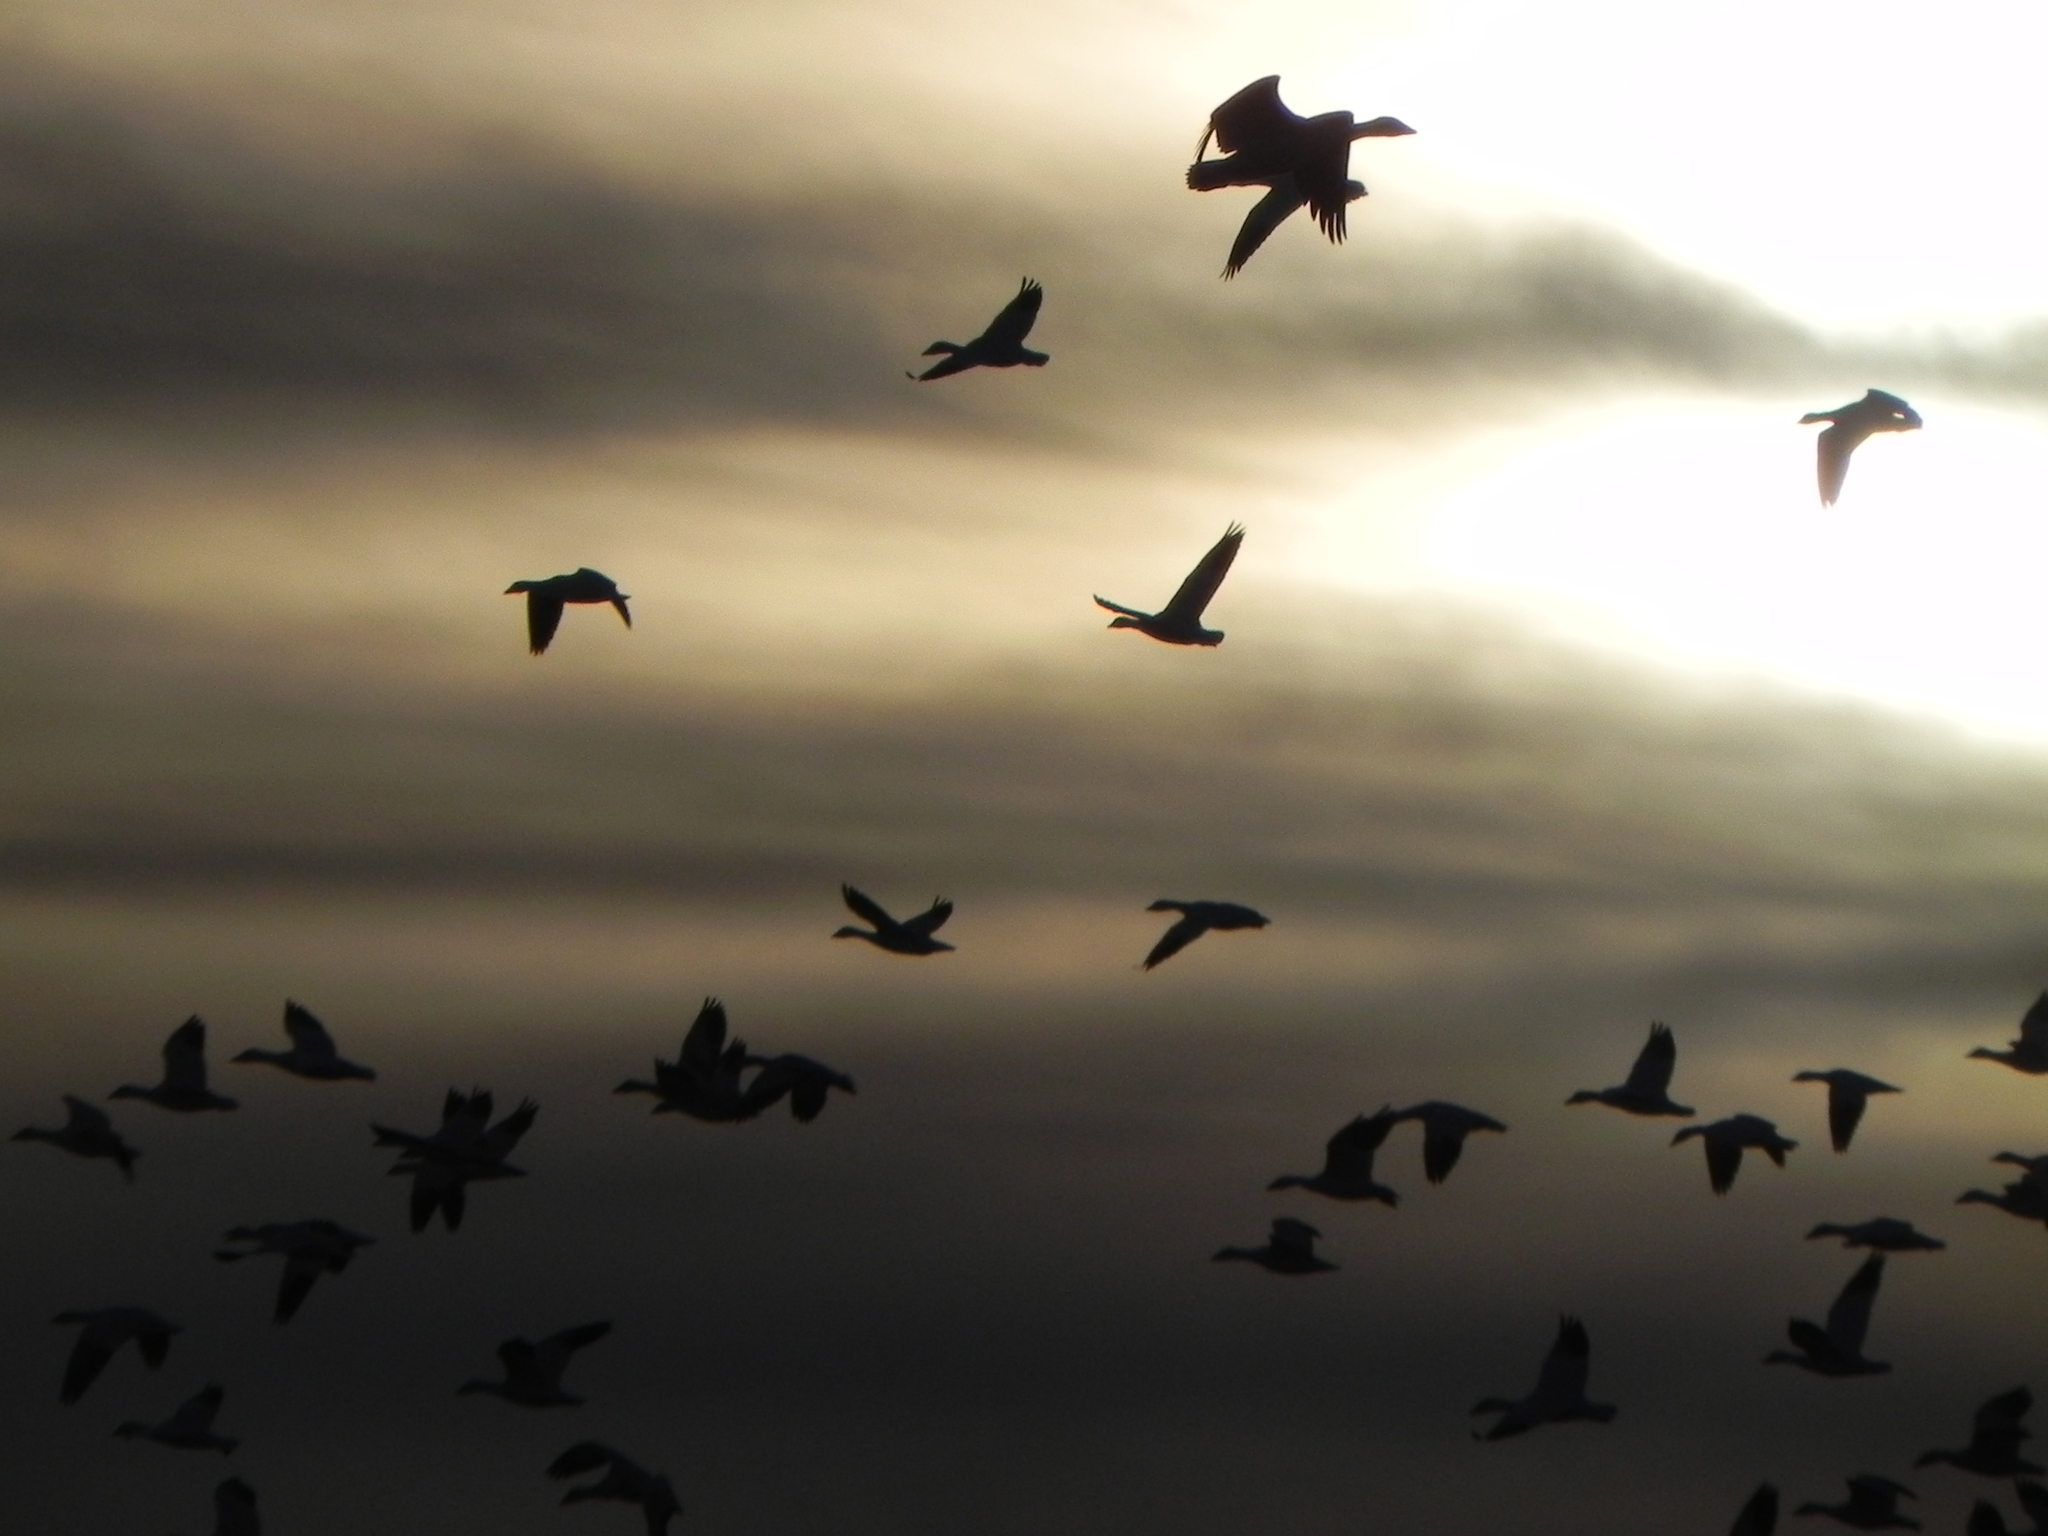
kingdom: Animalia
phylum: Chordata
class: Aves
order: Anseriformes
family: Anatidae
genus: Anser
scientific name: Anser caerulescens
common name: Snow goose
